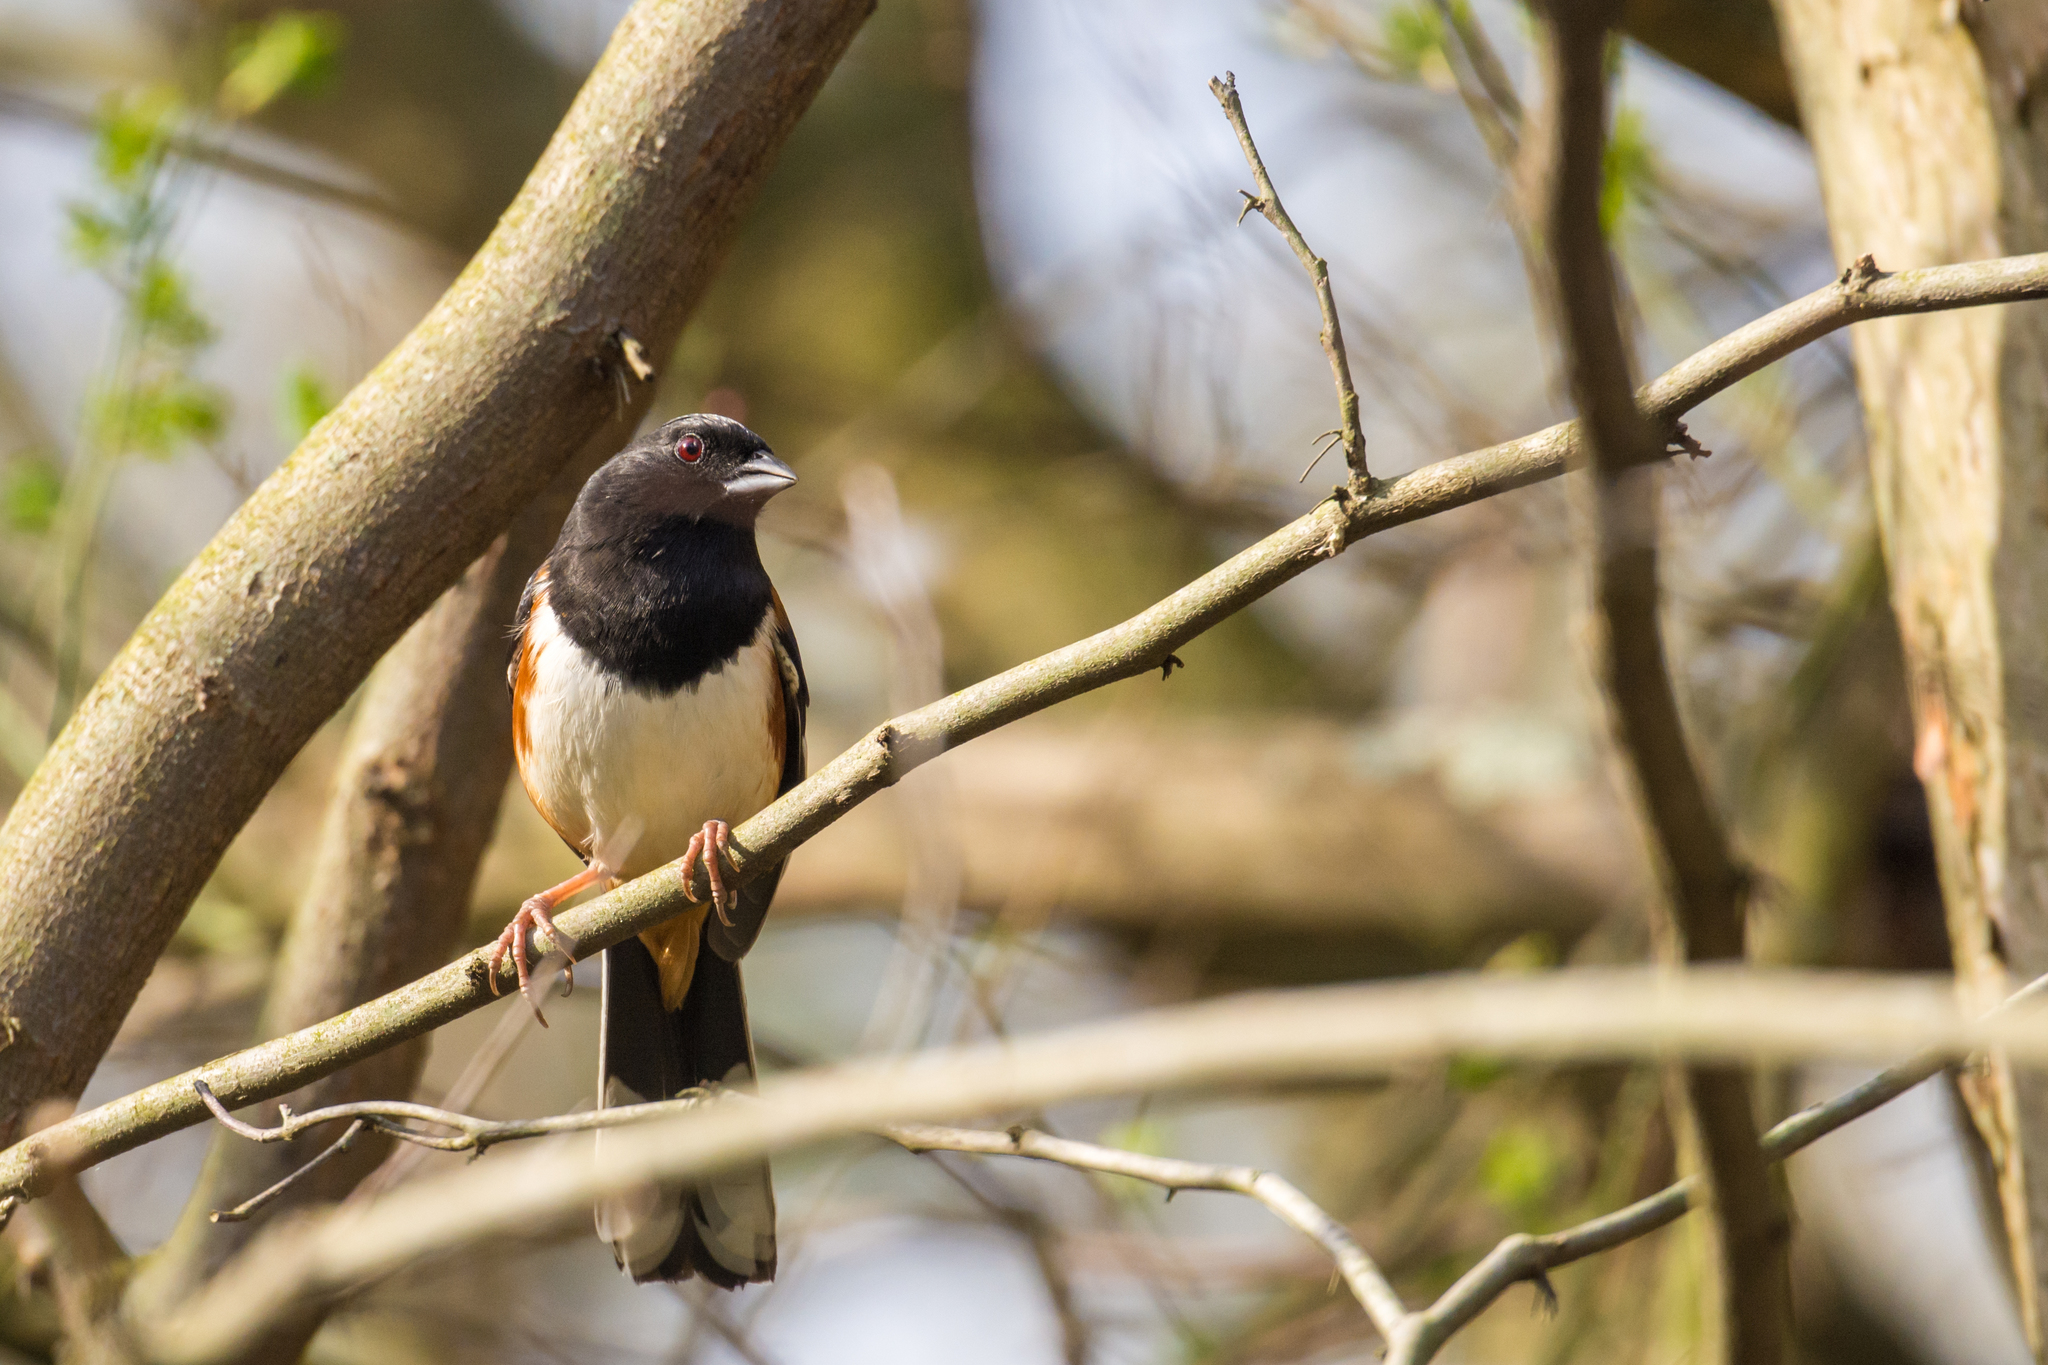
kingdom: Animalia
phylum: Chordata
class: Aves
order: Passeriformes
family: Passerellidae
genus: Pipilo
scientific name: Pipilo erythrophthalmus
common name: Eastern towhee
